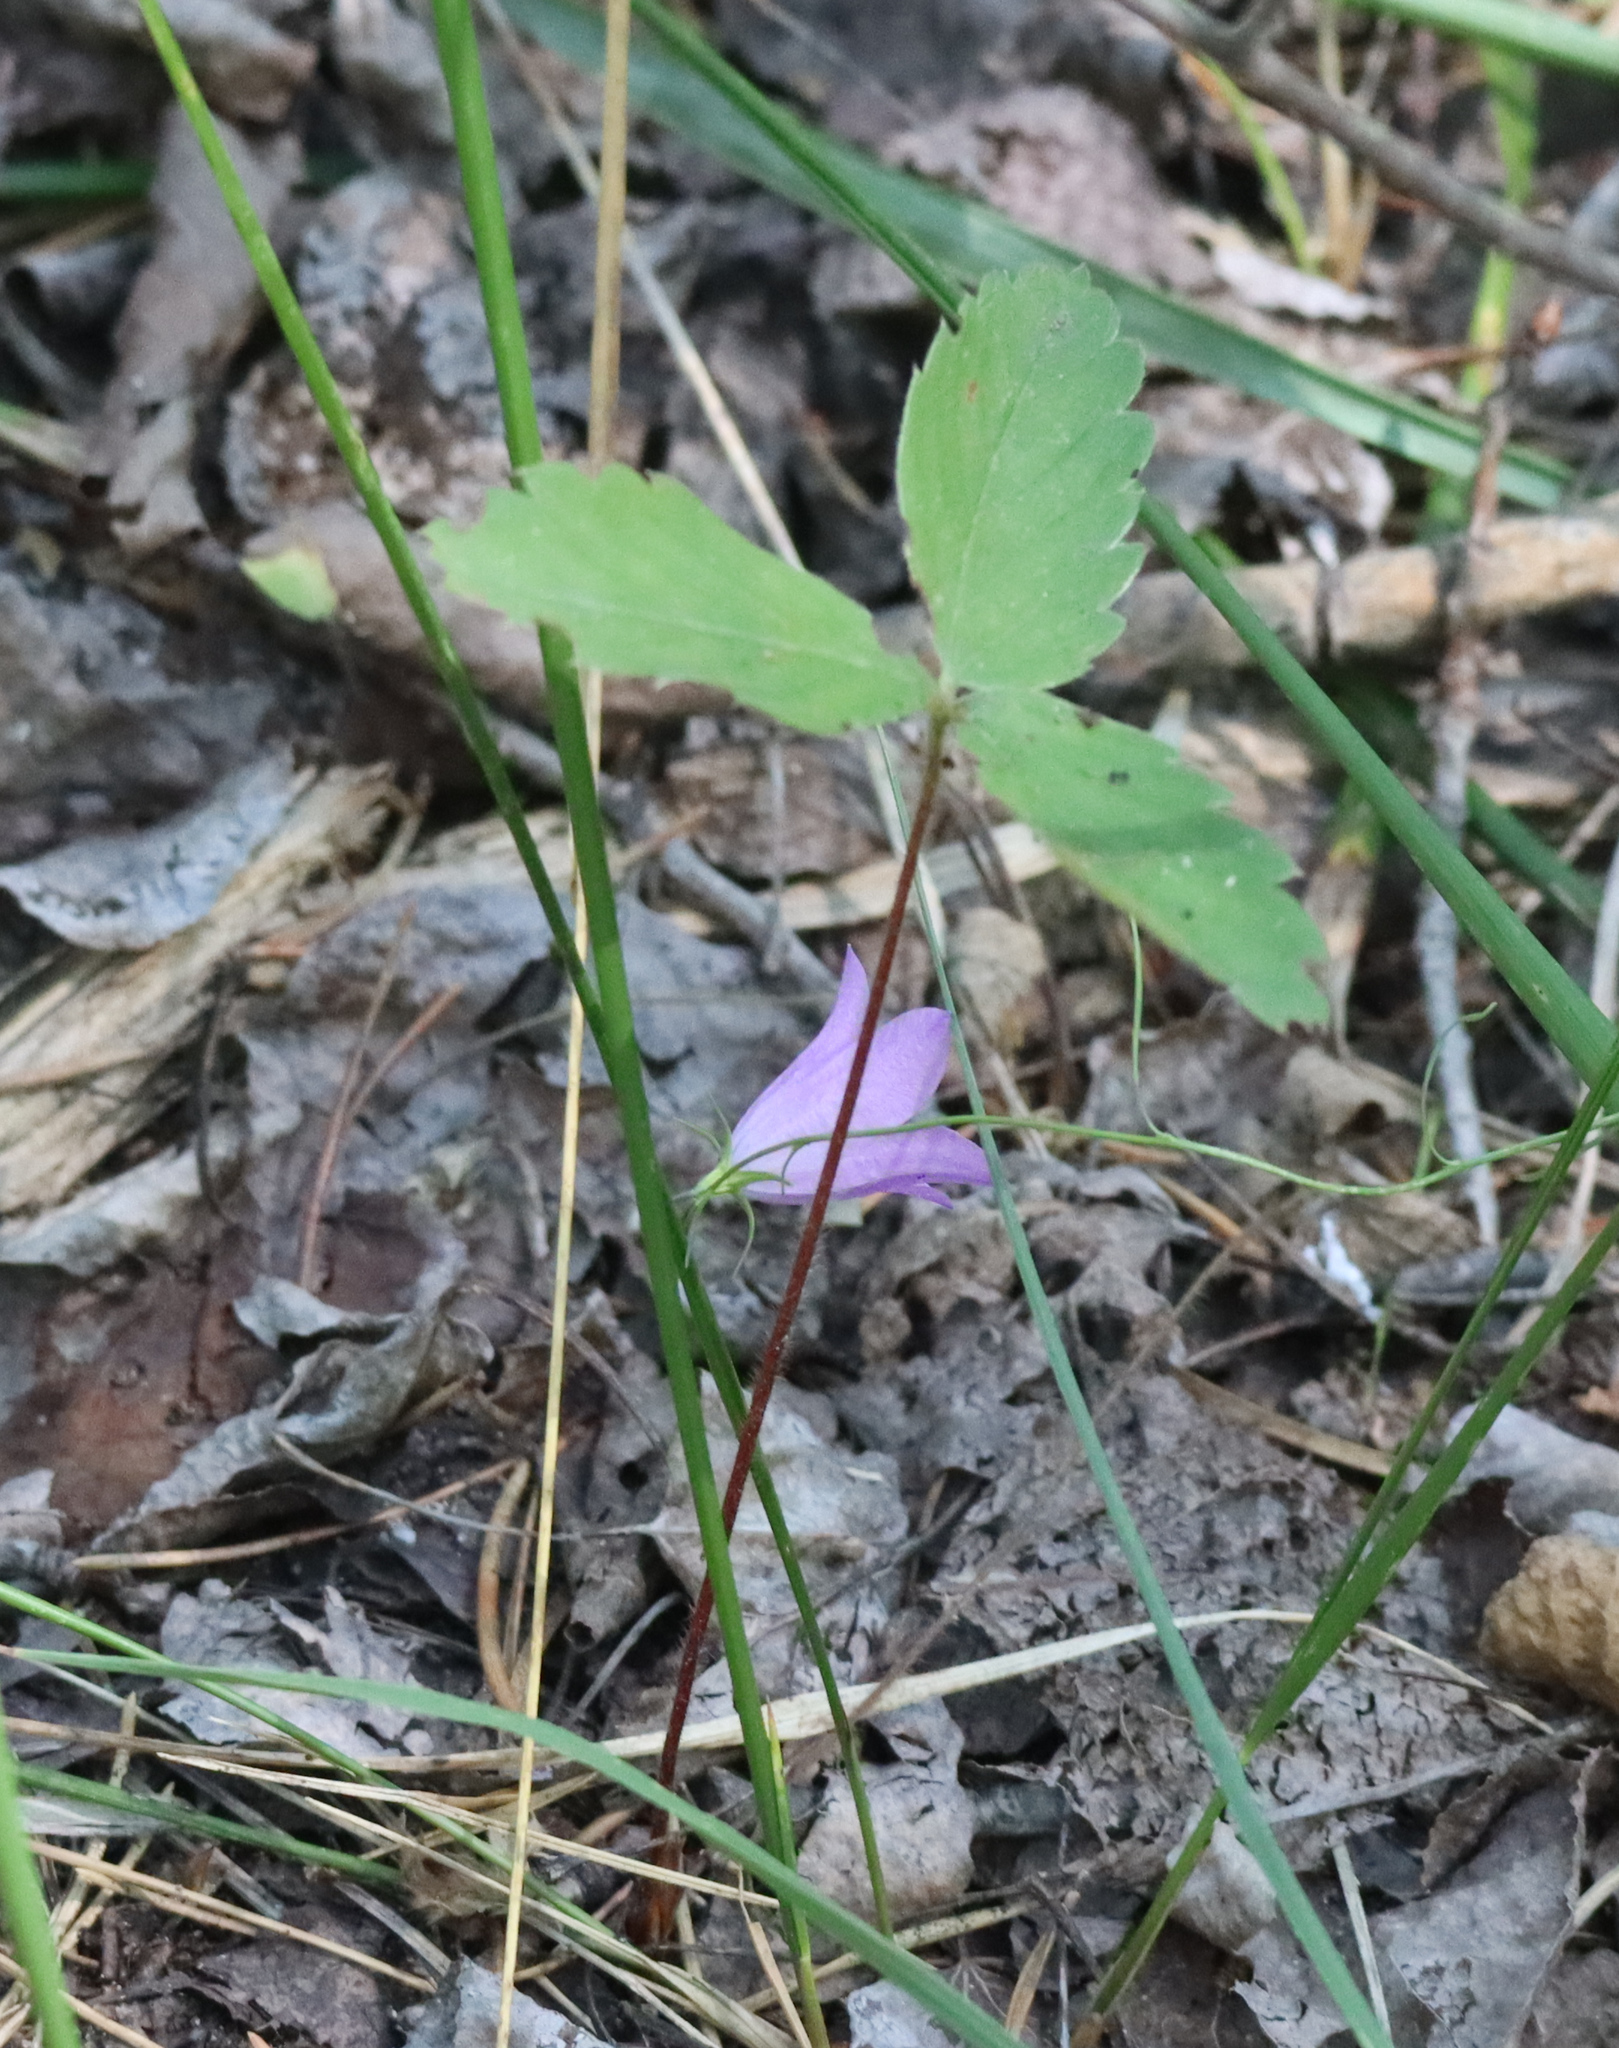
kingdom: Plantae
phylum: Tracheophyta
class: Magnoliopsida
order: Rosales
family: Rosaceae
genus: Fragaria
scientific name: Fragaria virginiana
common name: Thickleaved wild strawberry
